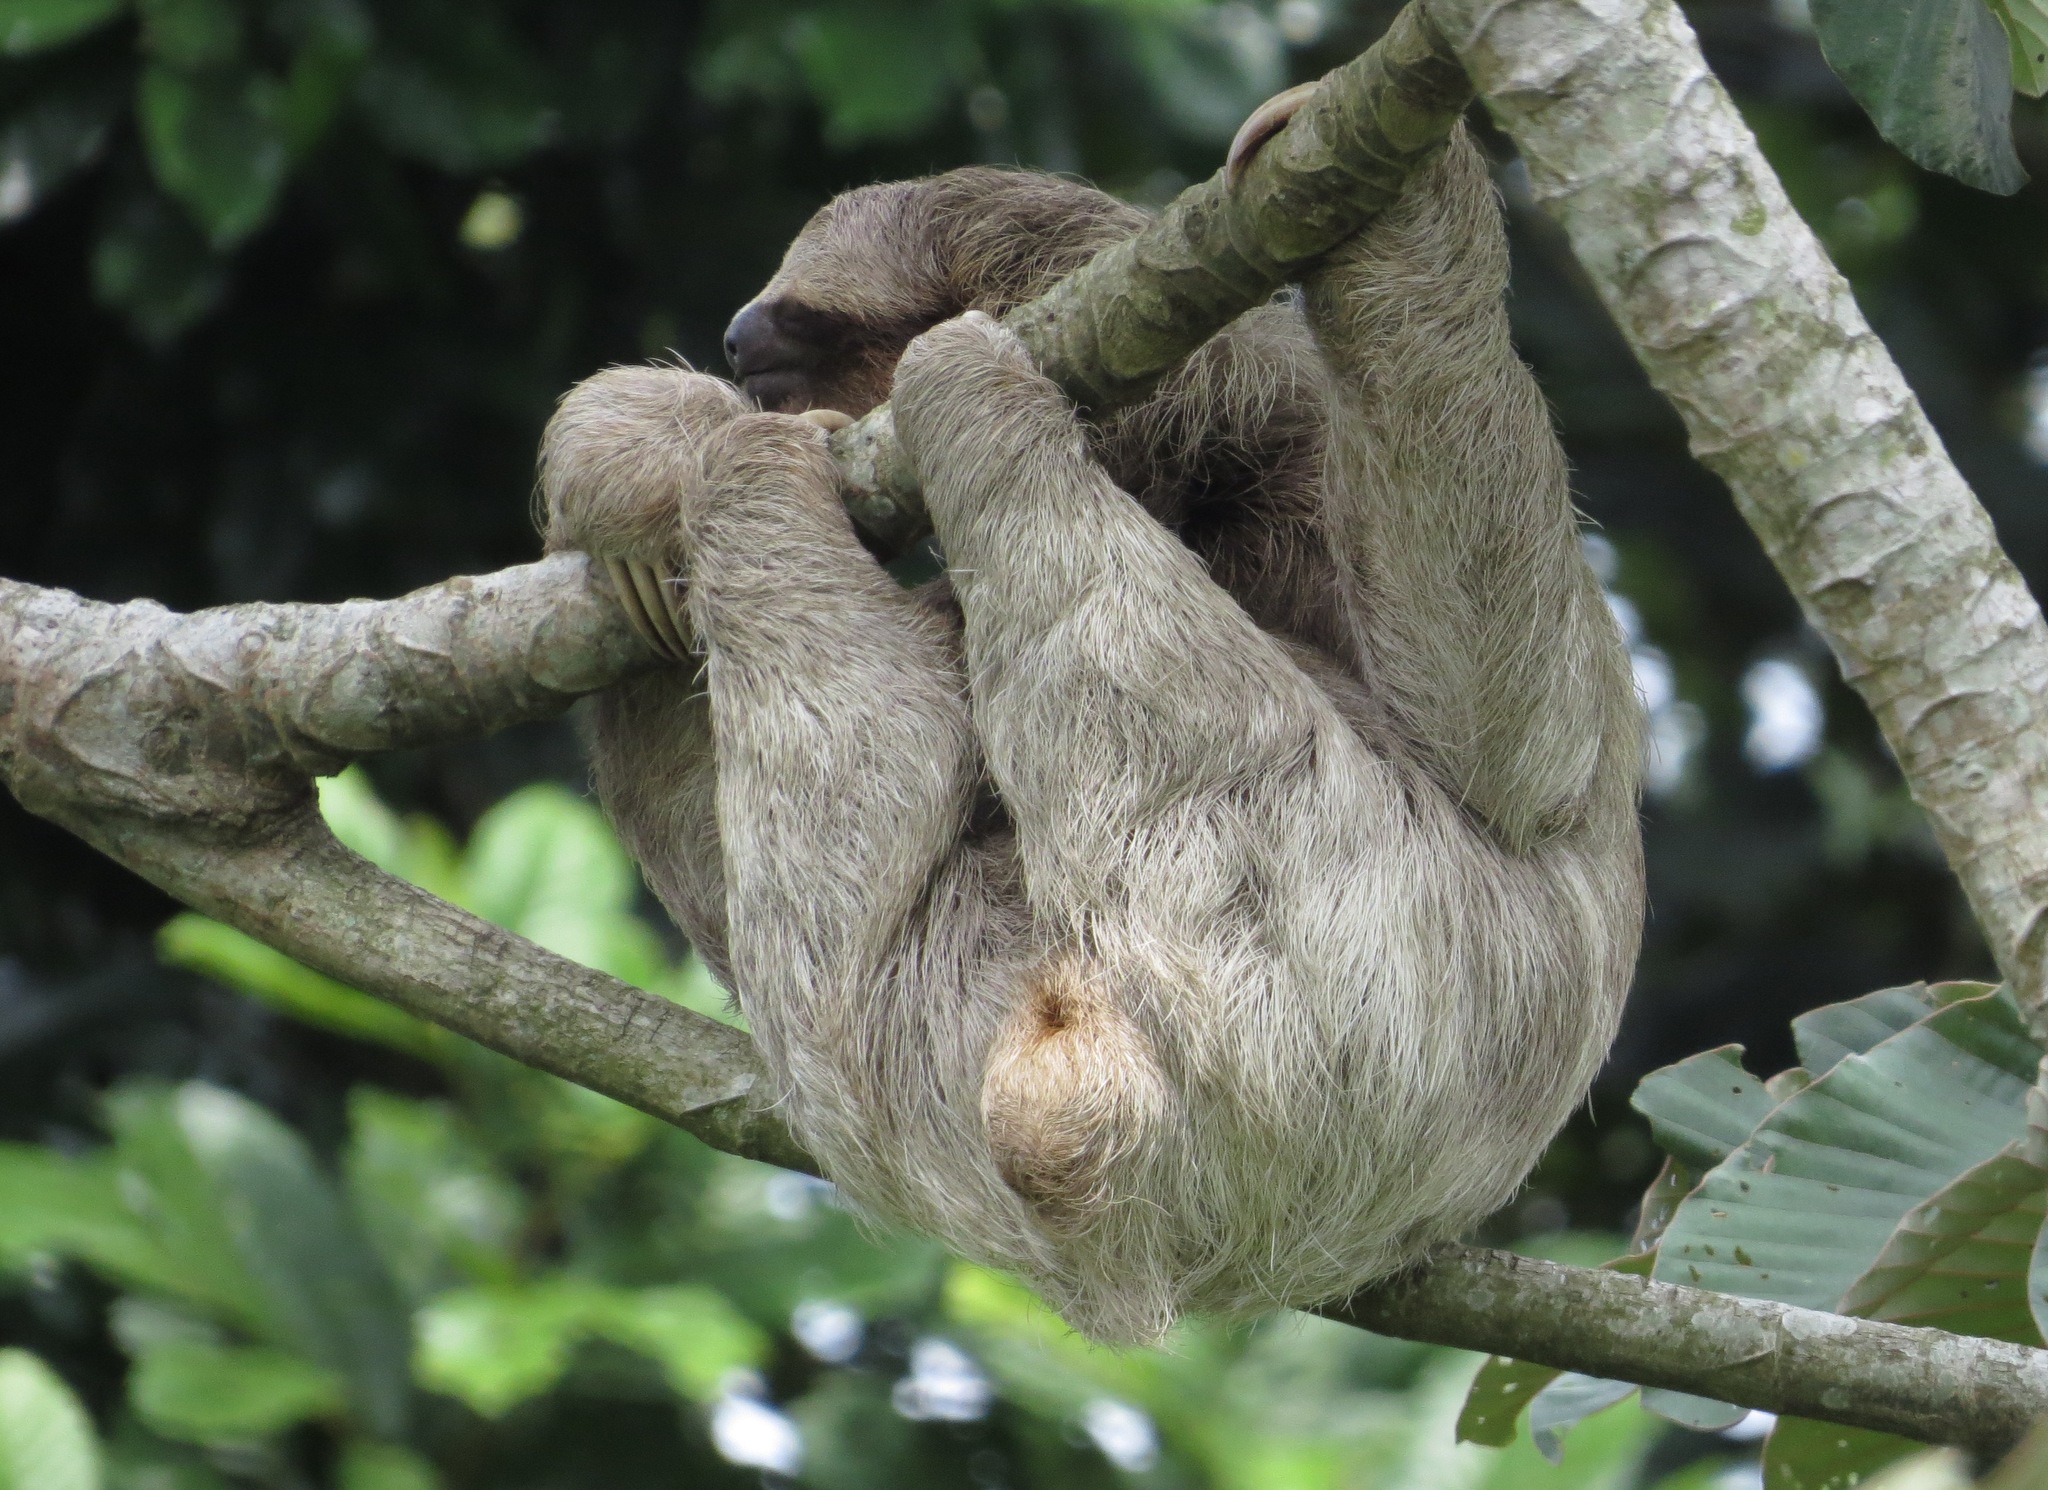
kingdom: Animalia
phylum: Chordata
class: Mammalia
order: Pilosa
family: Bradypodidae
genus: Bradypus
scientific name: Bradypus variegatus
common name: Brown-throated three-toed sloth
